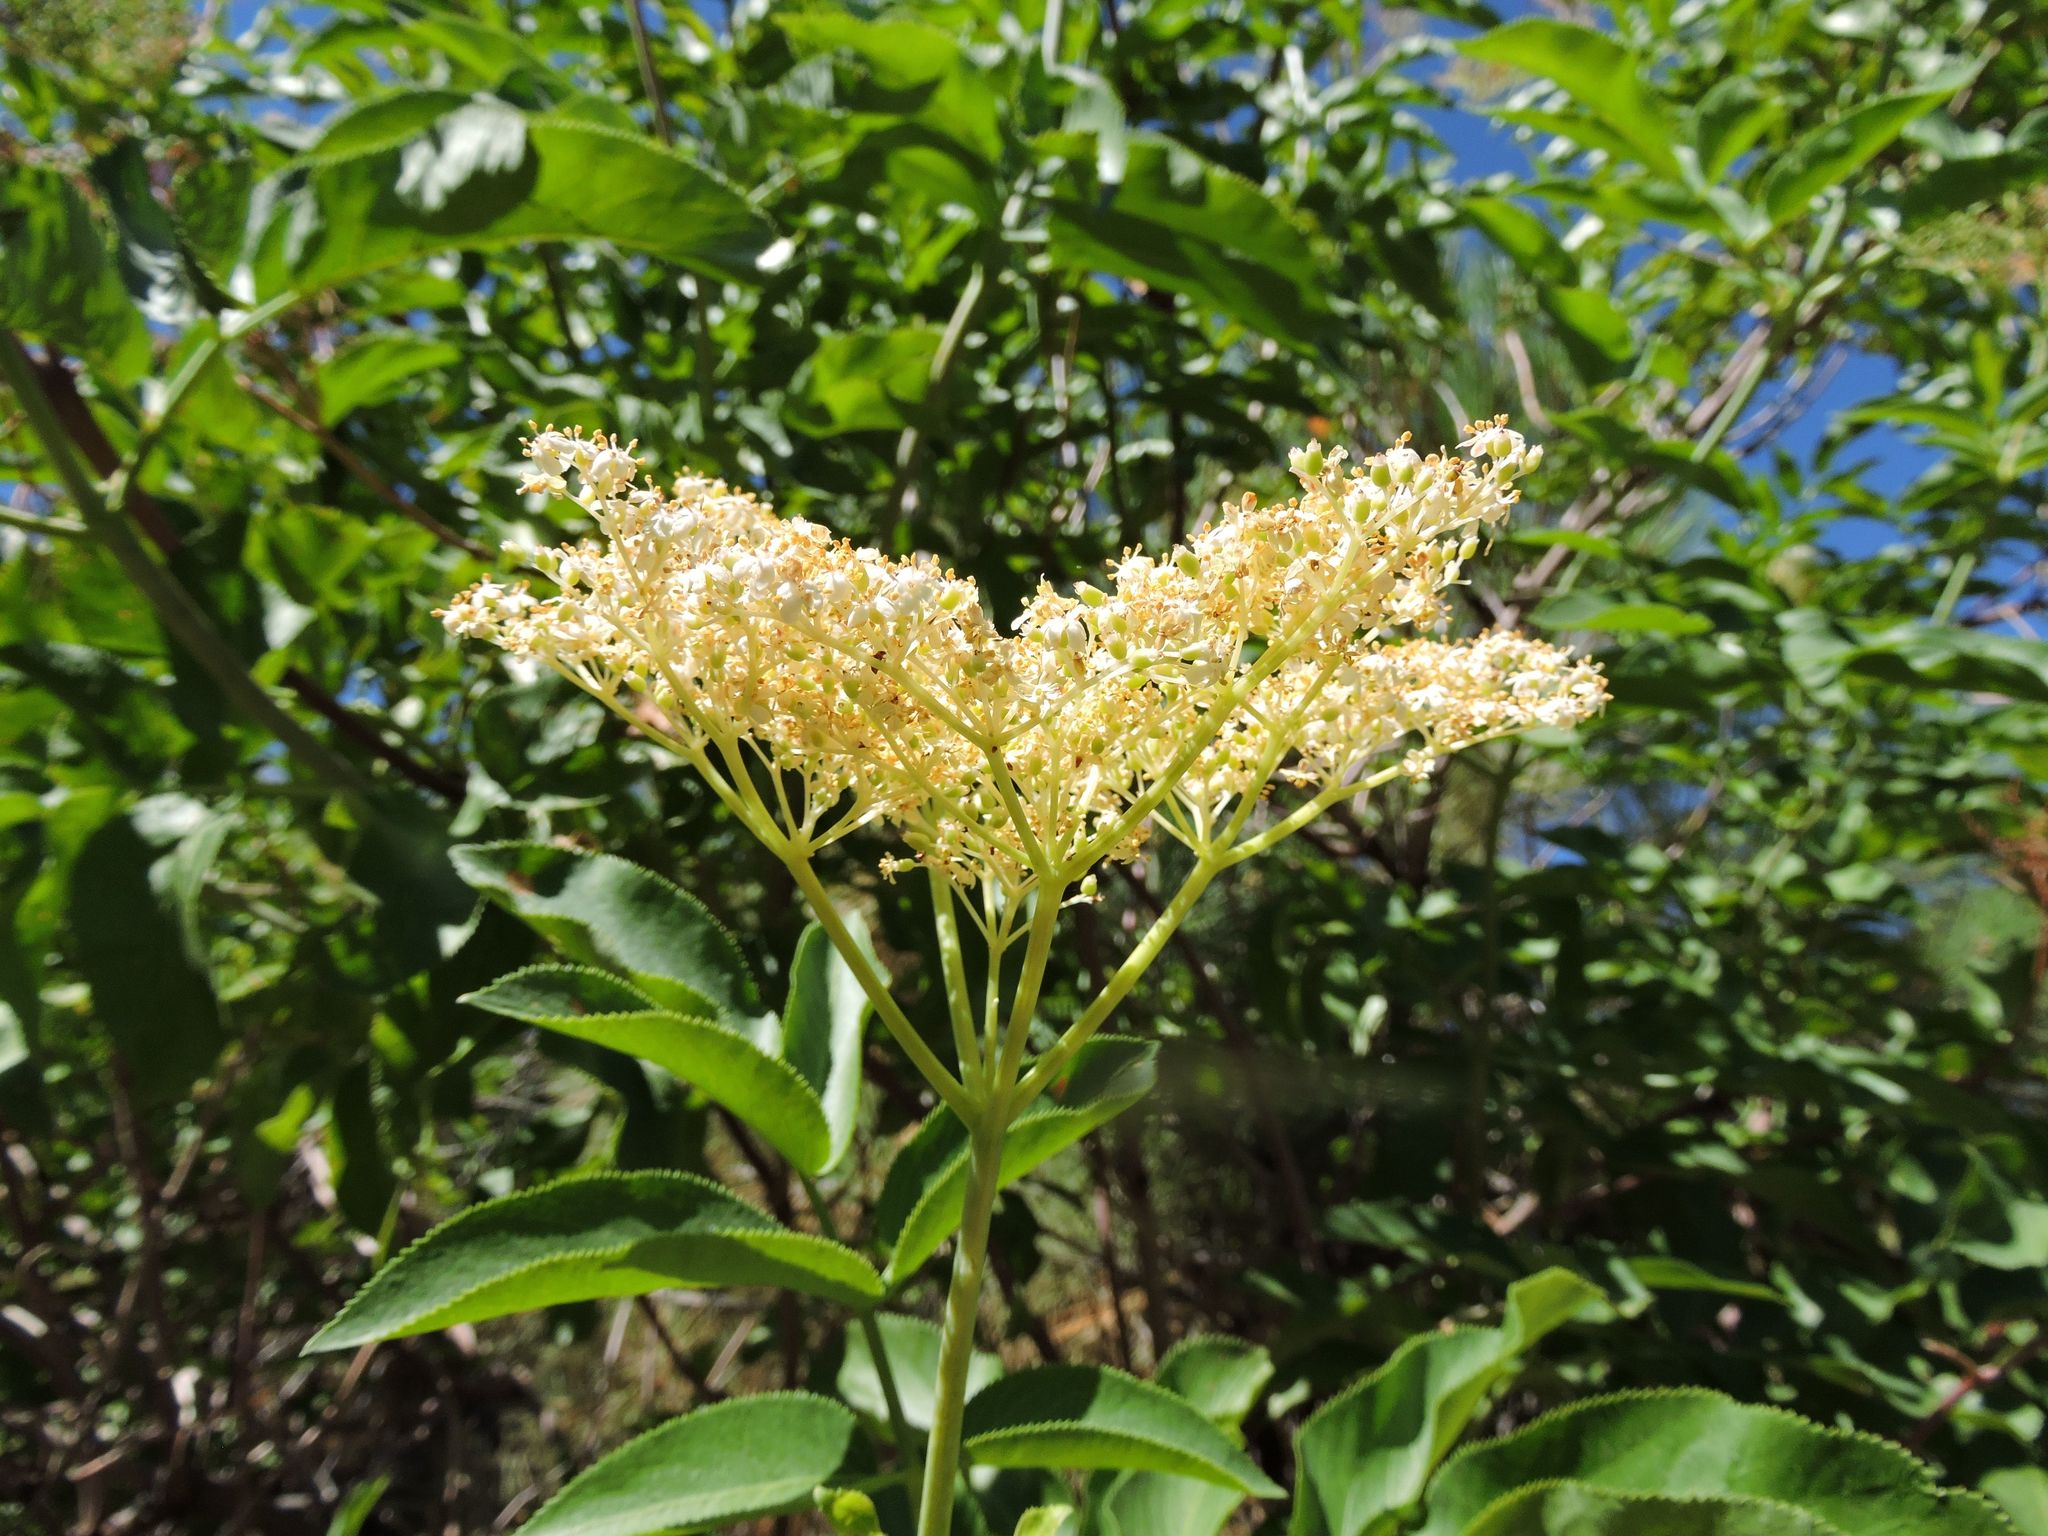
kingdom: Plantae
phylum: Tracheophyta
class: Magnoliopsida
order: Dipsacales
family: Viburnaceae
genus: Sambucus
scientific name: Sambucus cerulea
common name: Blue elder
